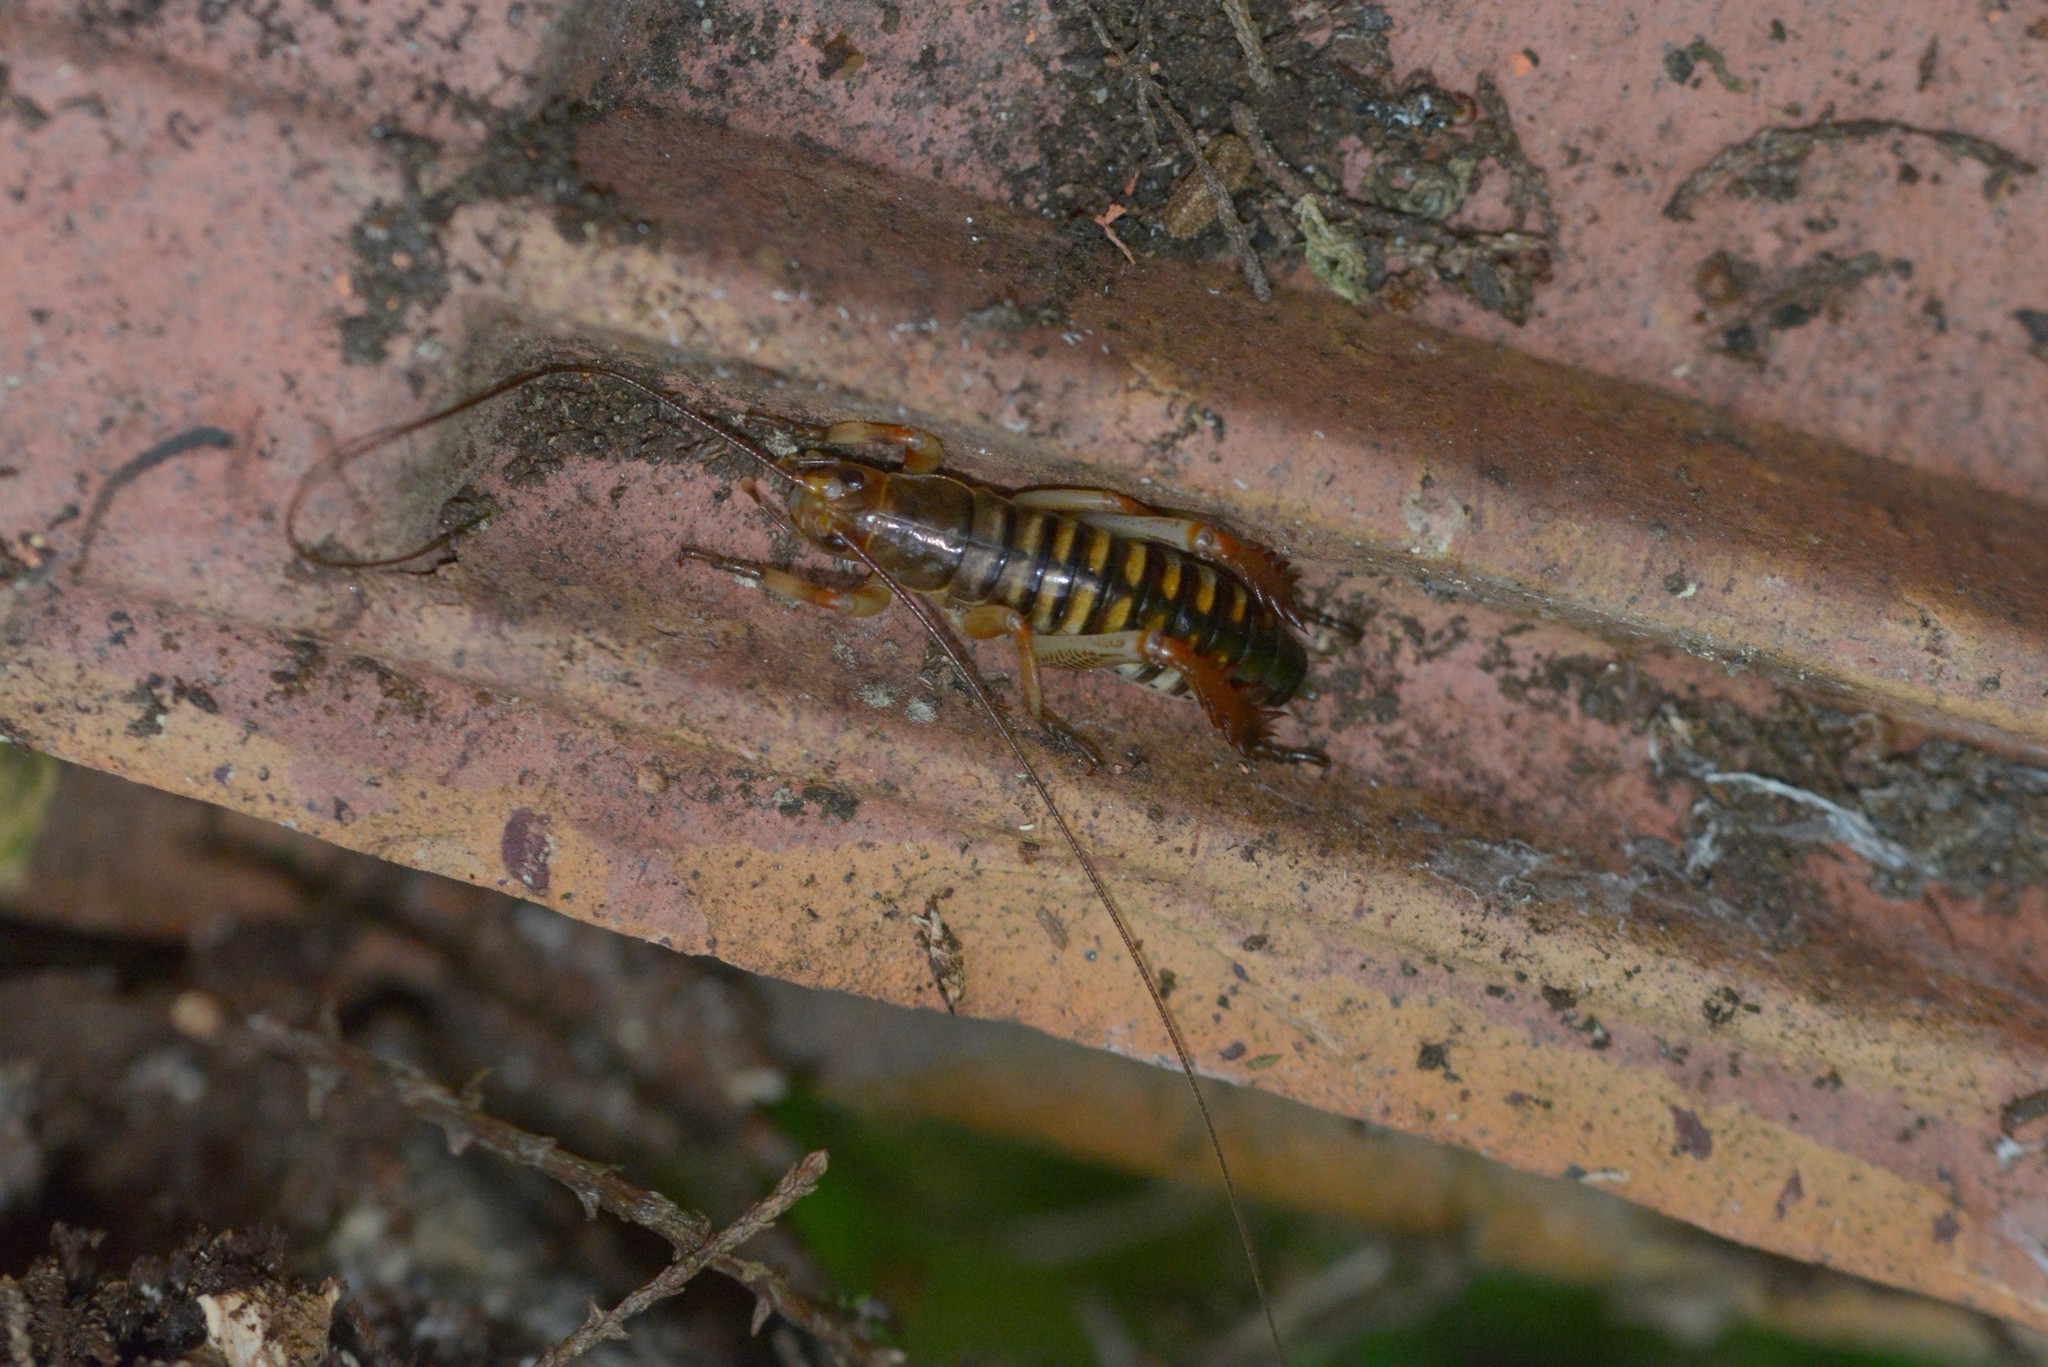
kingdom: Animalia
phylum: Arthropoda
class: Insecta
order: Orthoptera
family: Anostostomatidae
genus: Hemideina
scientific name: Hemideina crassidens
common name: Wellington tree weta
